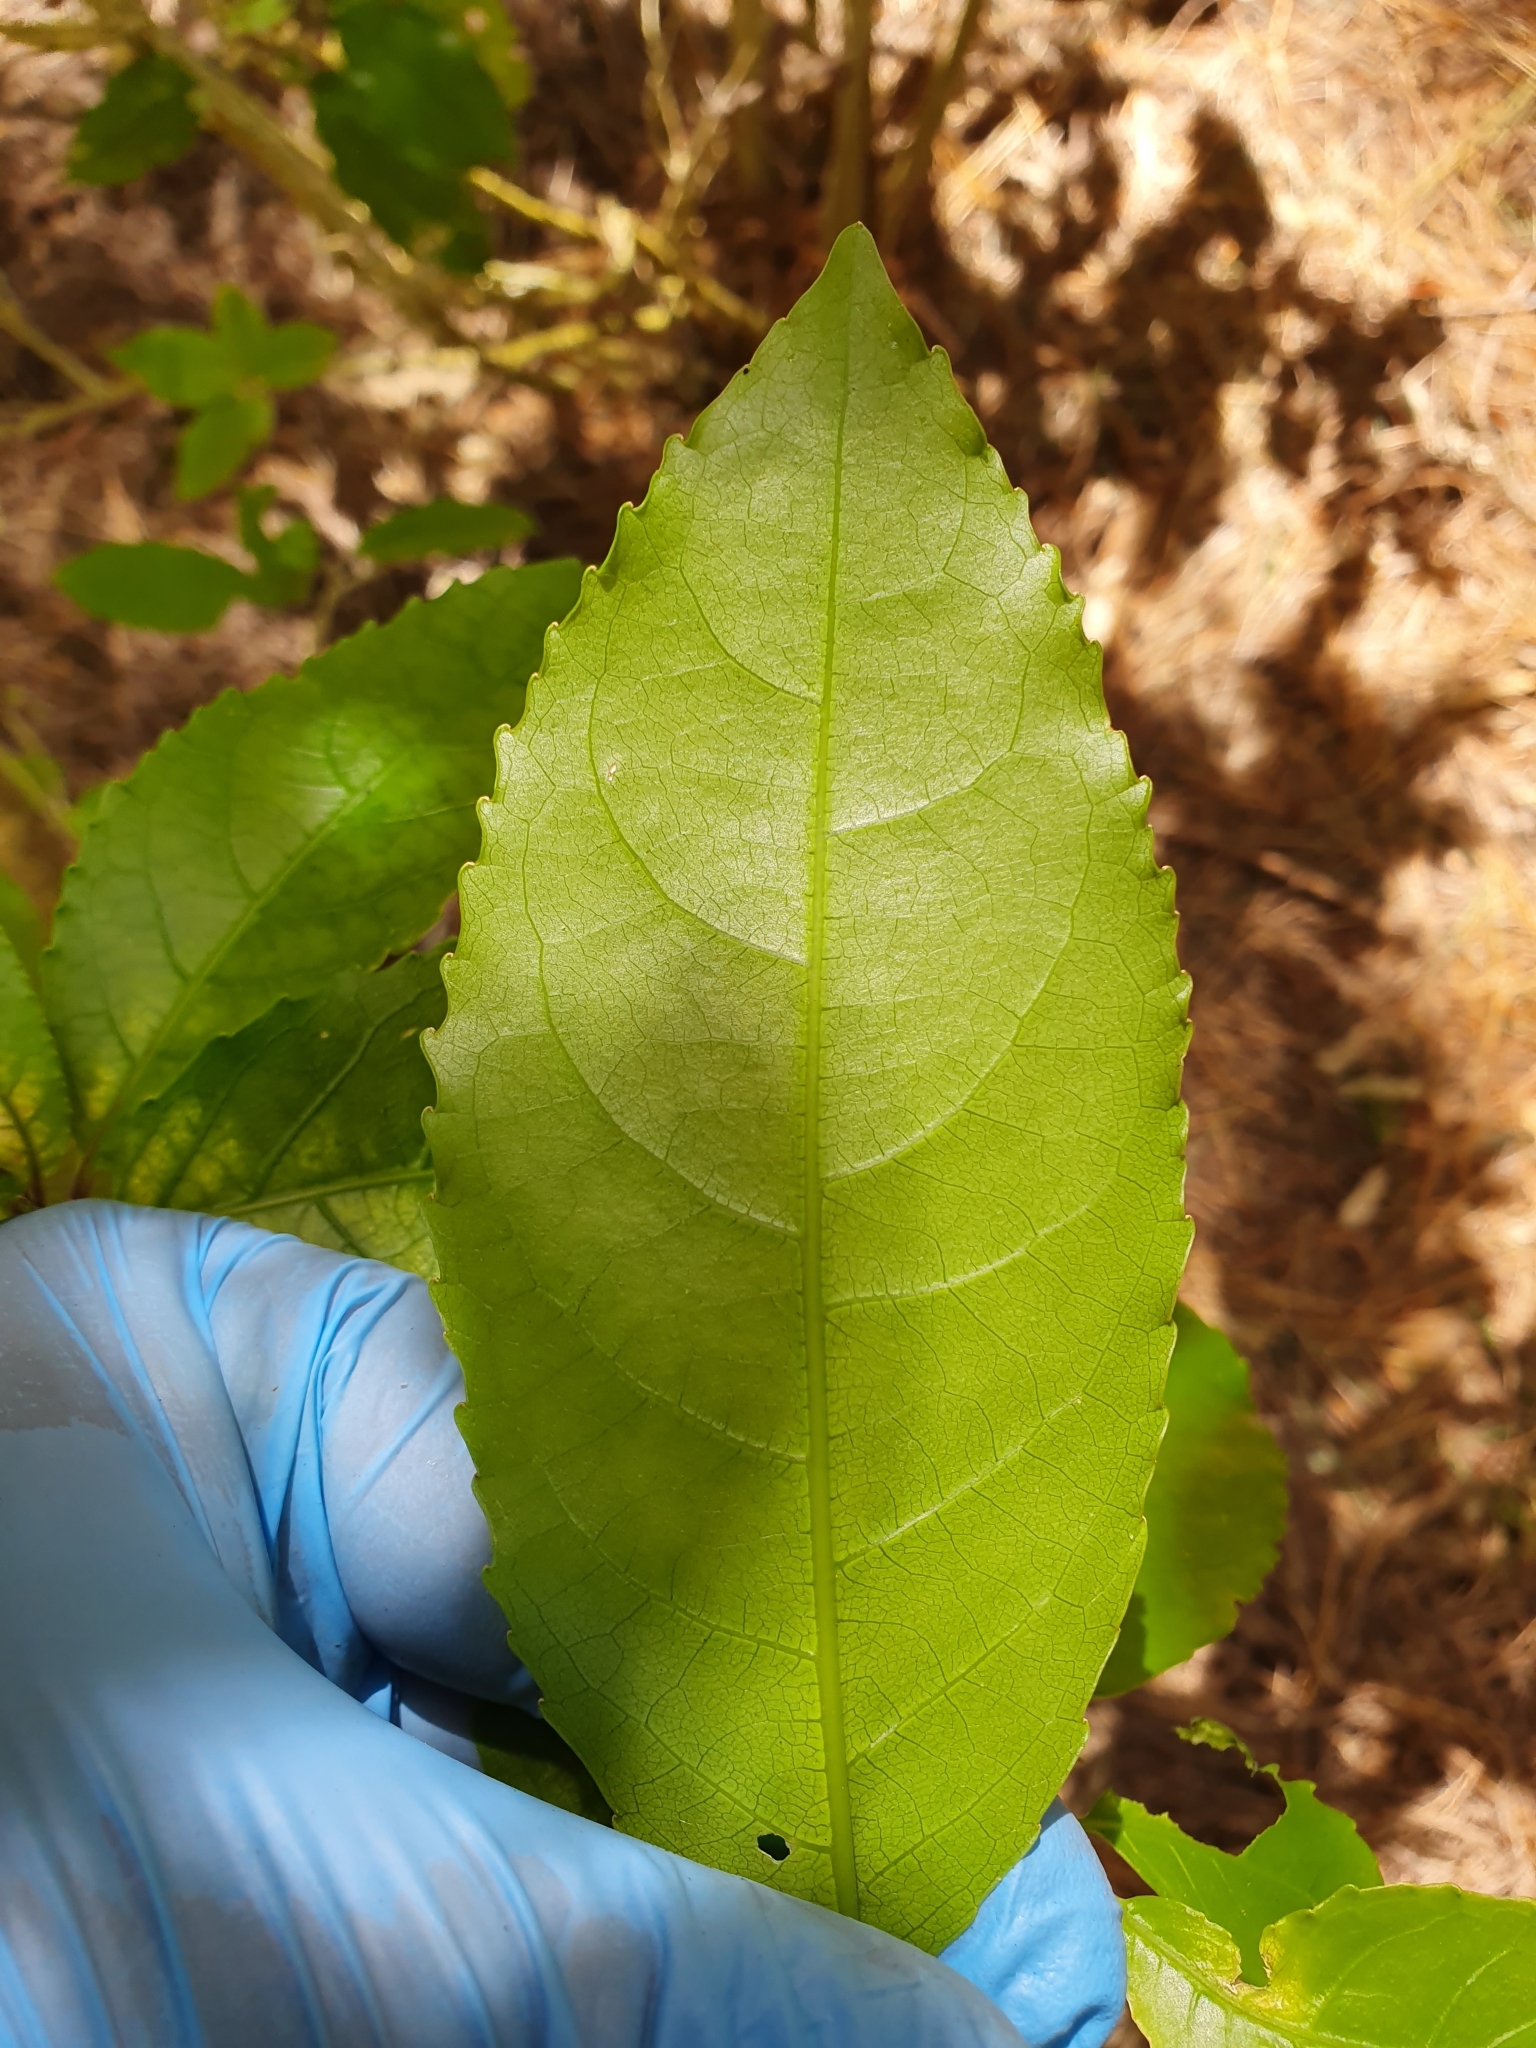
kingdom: Plantae
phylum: Tracheophyta
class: Magnoliopsida
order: Malpighiales
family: Violaceae
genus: Melicytus
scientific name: Melicytus ramiflorus
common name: Mahoe
